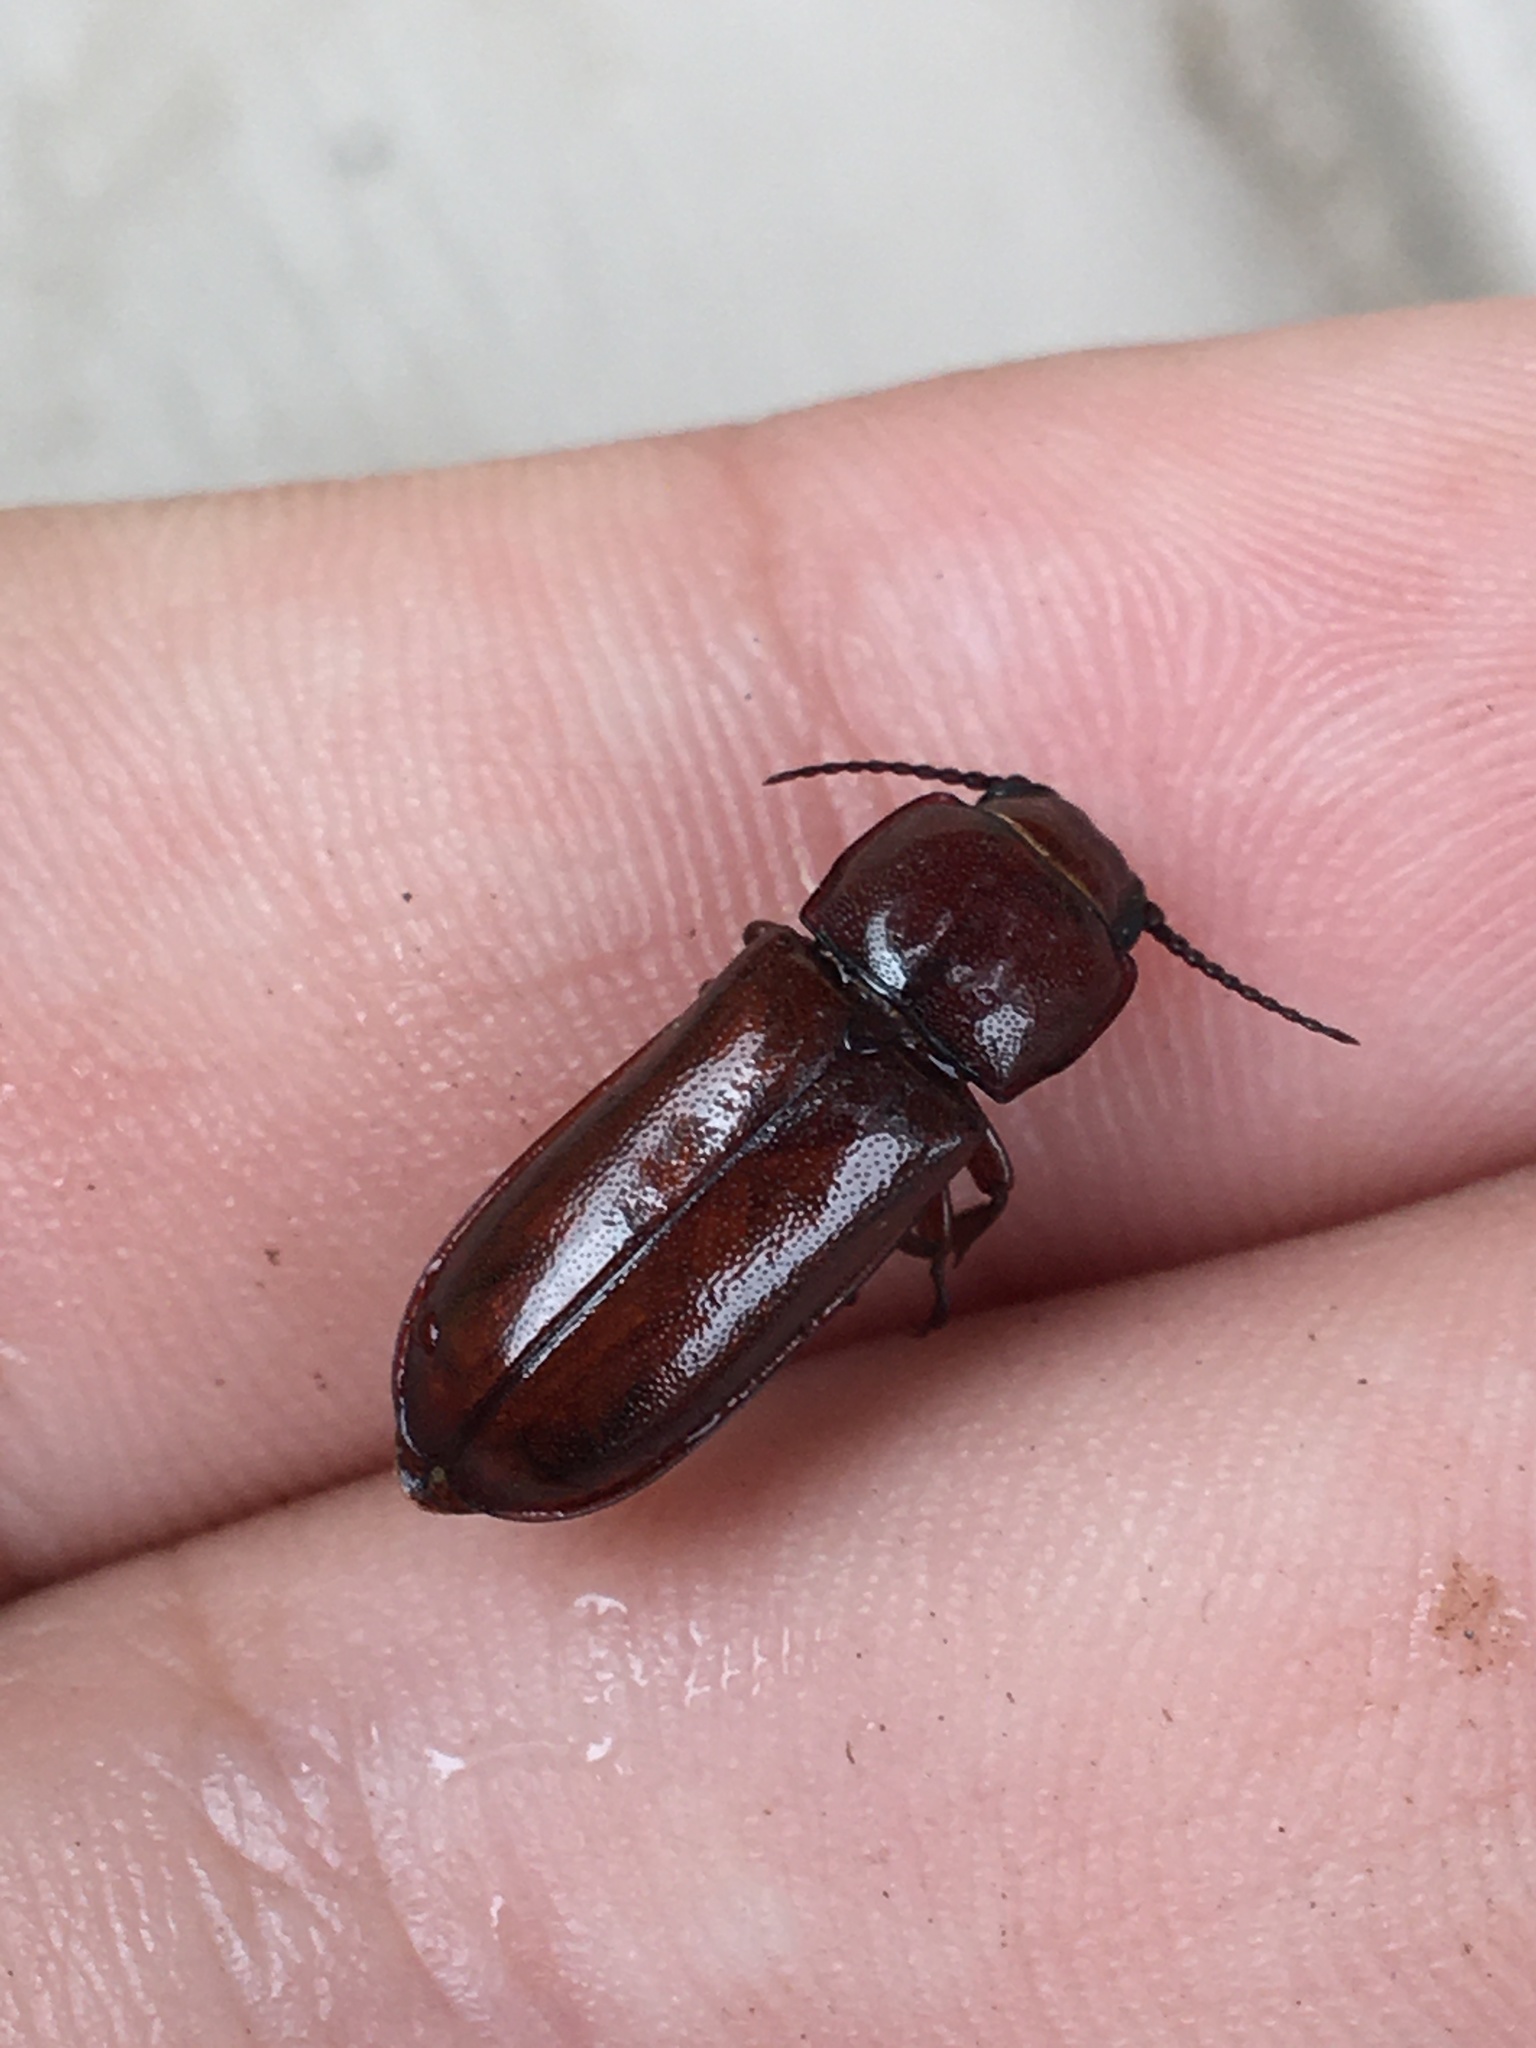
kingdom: Animalia
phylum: Arthropoda
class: Insecta
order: Coleoptera
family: Cerambycidae
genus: Neandra
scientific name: Neandra brunnea
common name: Pole borer
